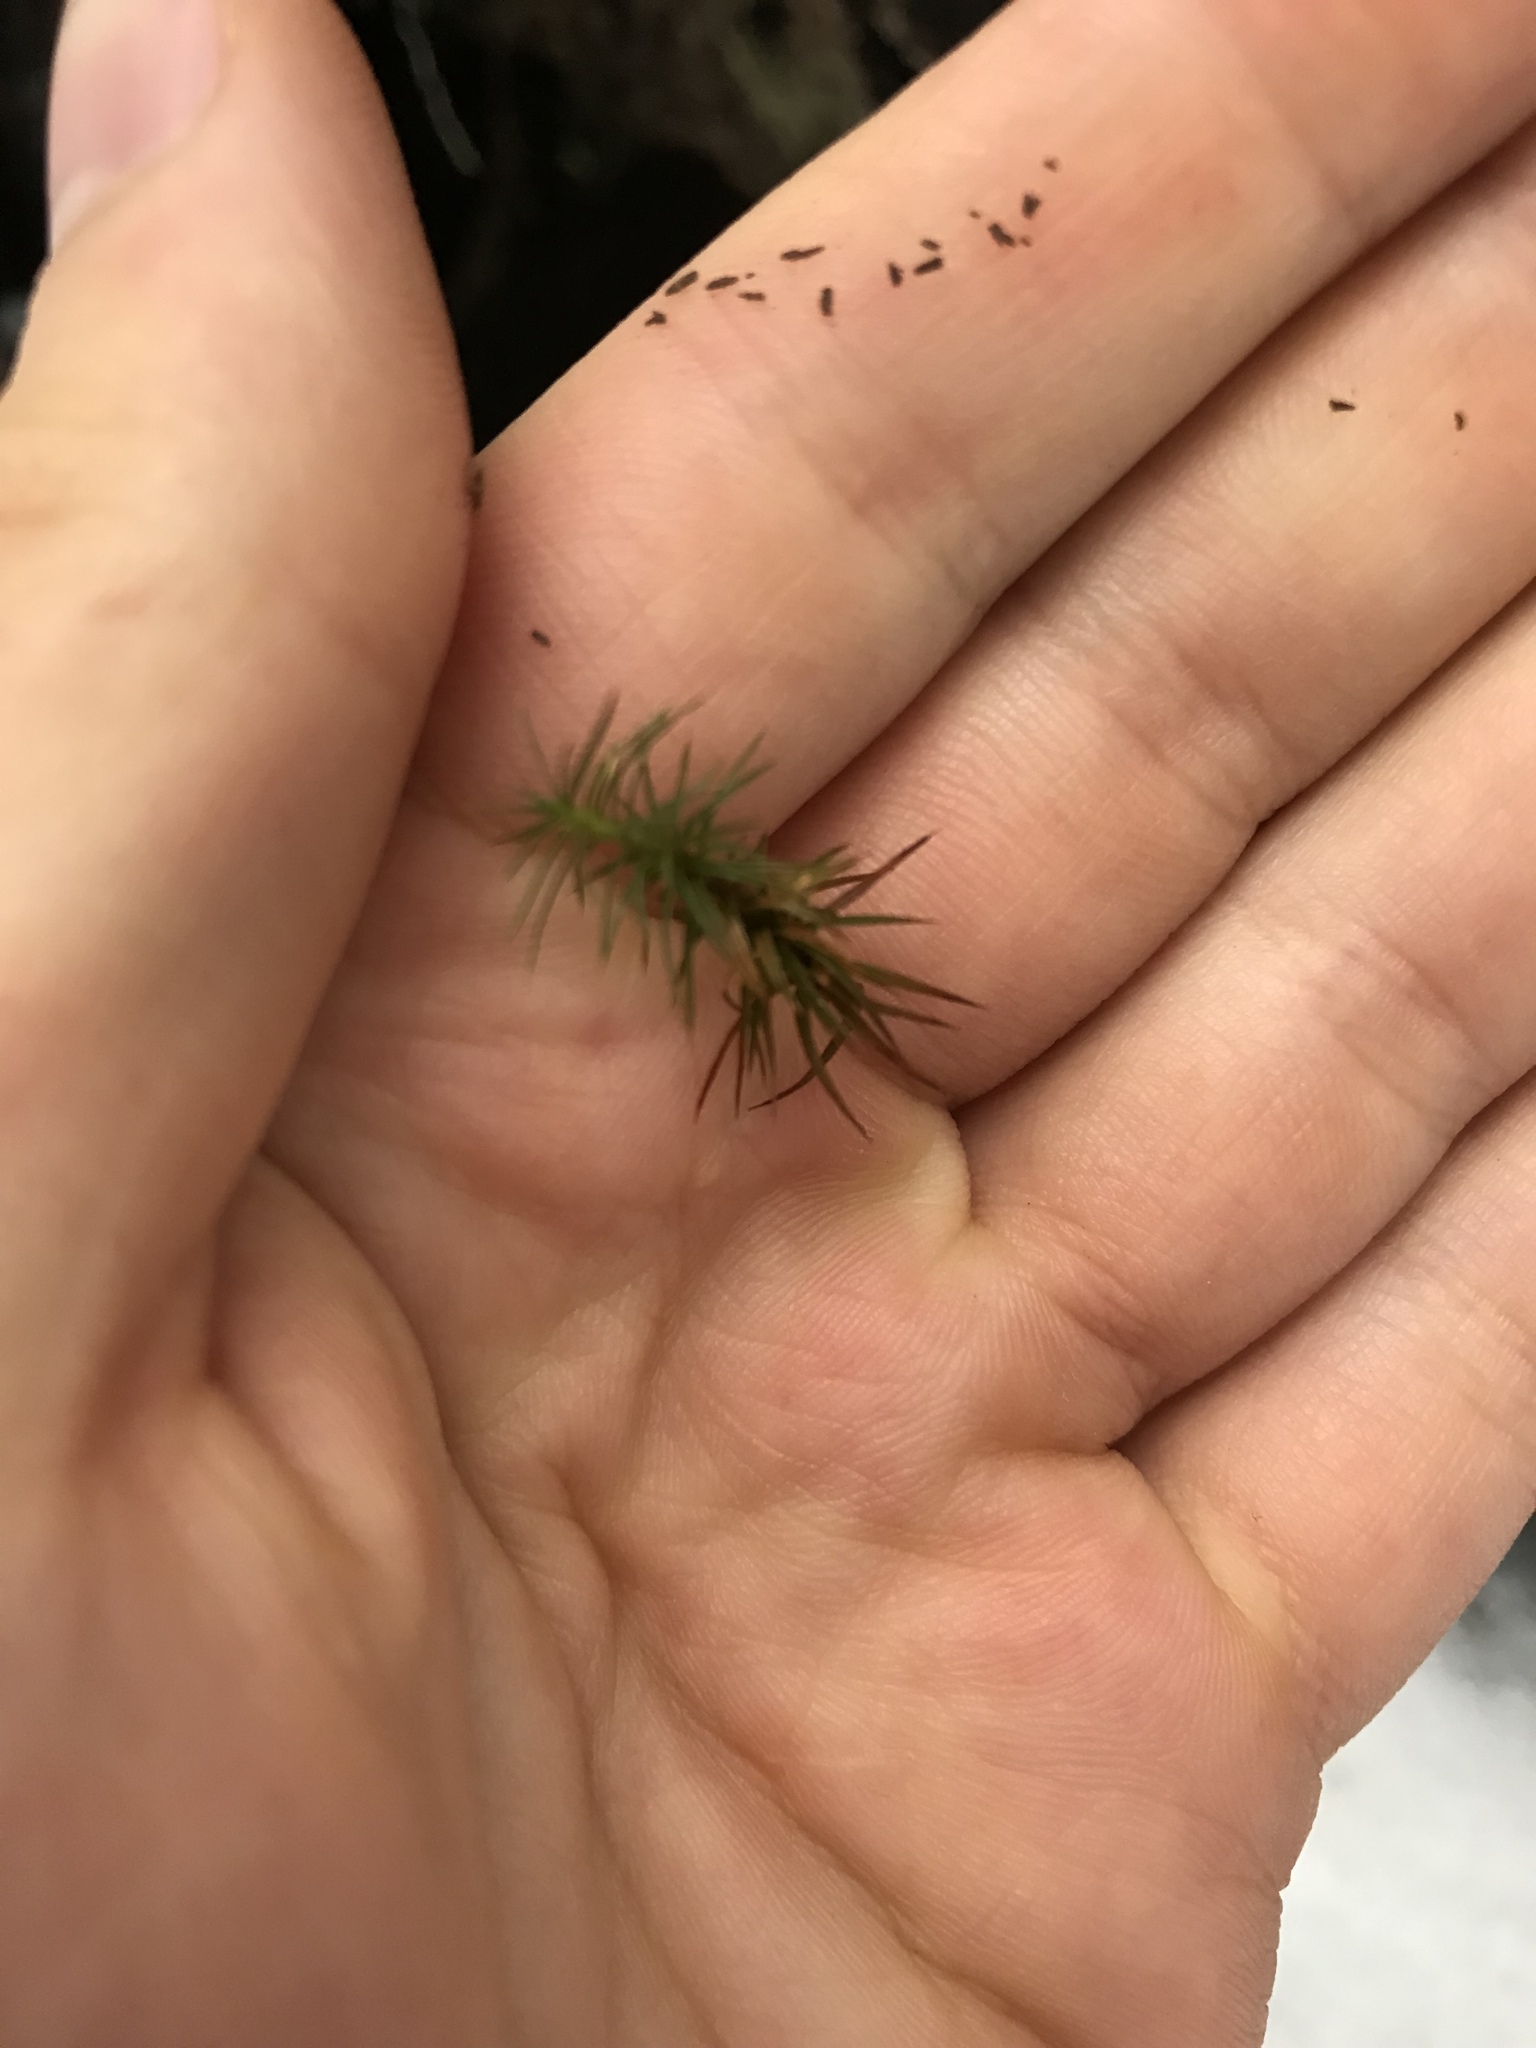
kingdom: Plantae
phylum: Bryophyta
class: Polytrichopsida
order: Polytrichales
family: Polytrichaceae
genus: Polytrichum
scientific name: Polytrichum juniperinum
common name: Juniper haircap moss
